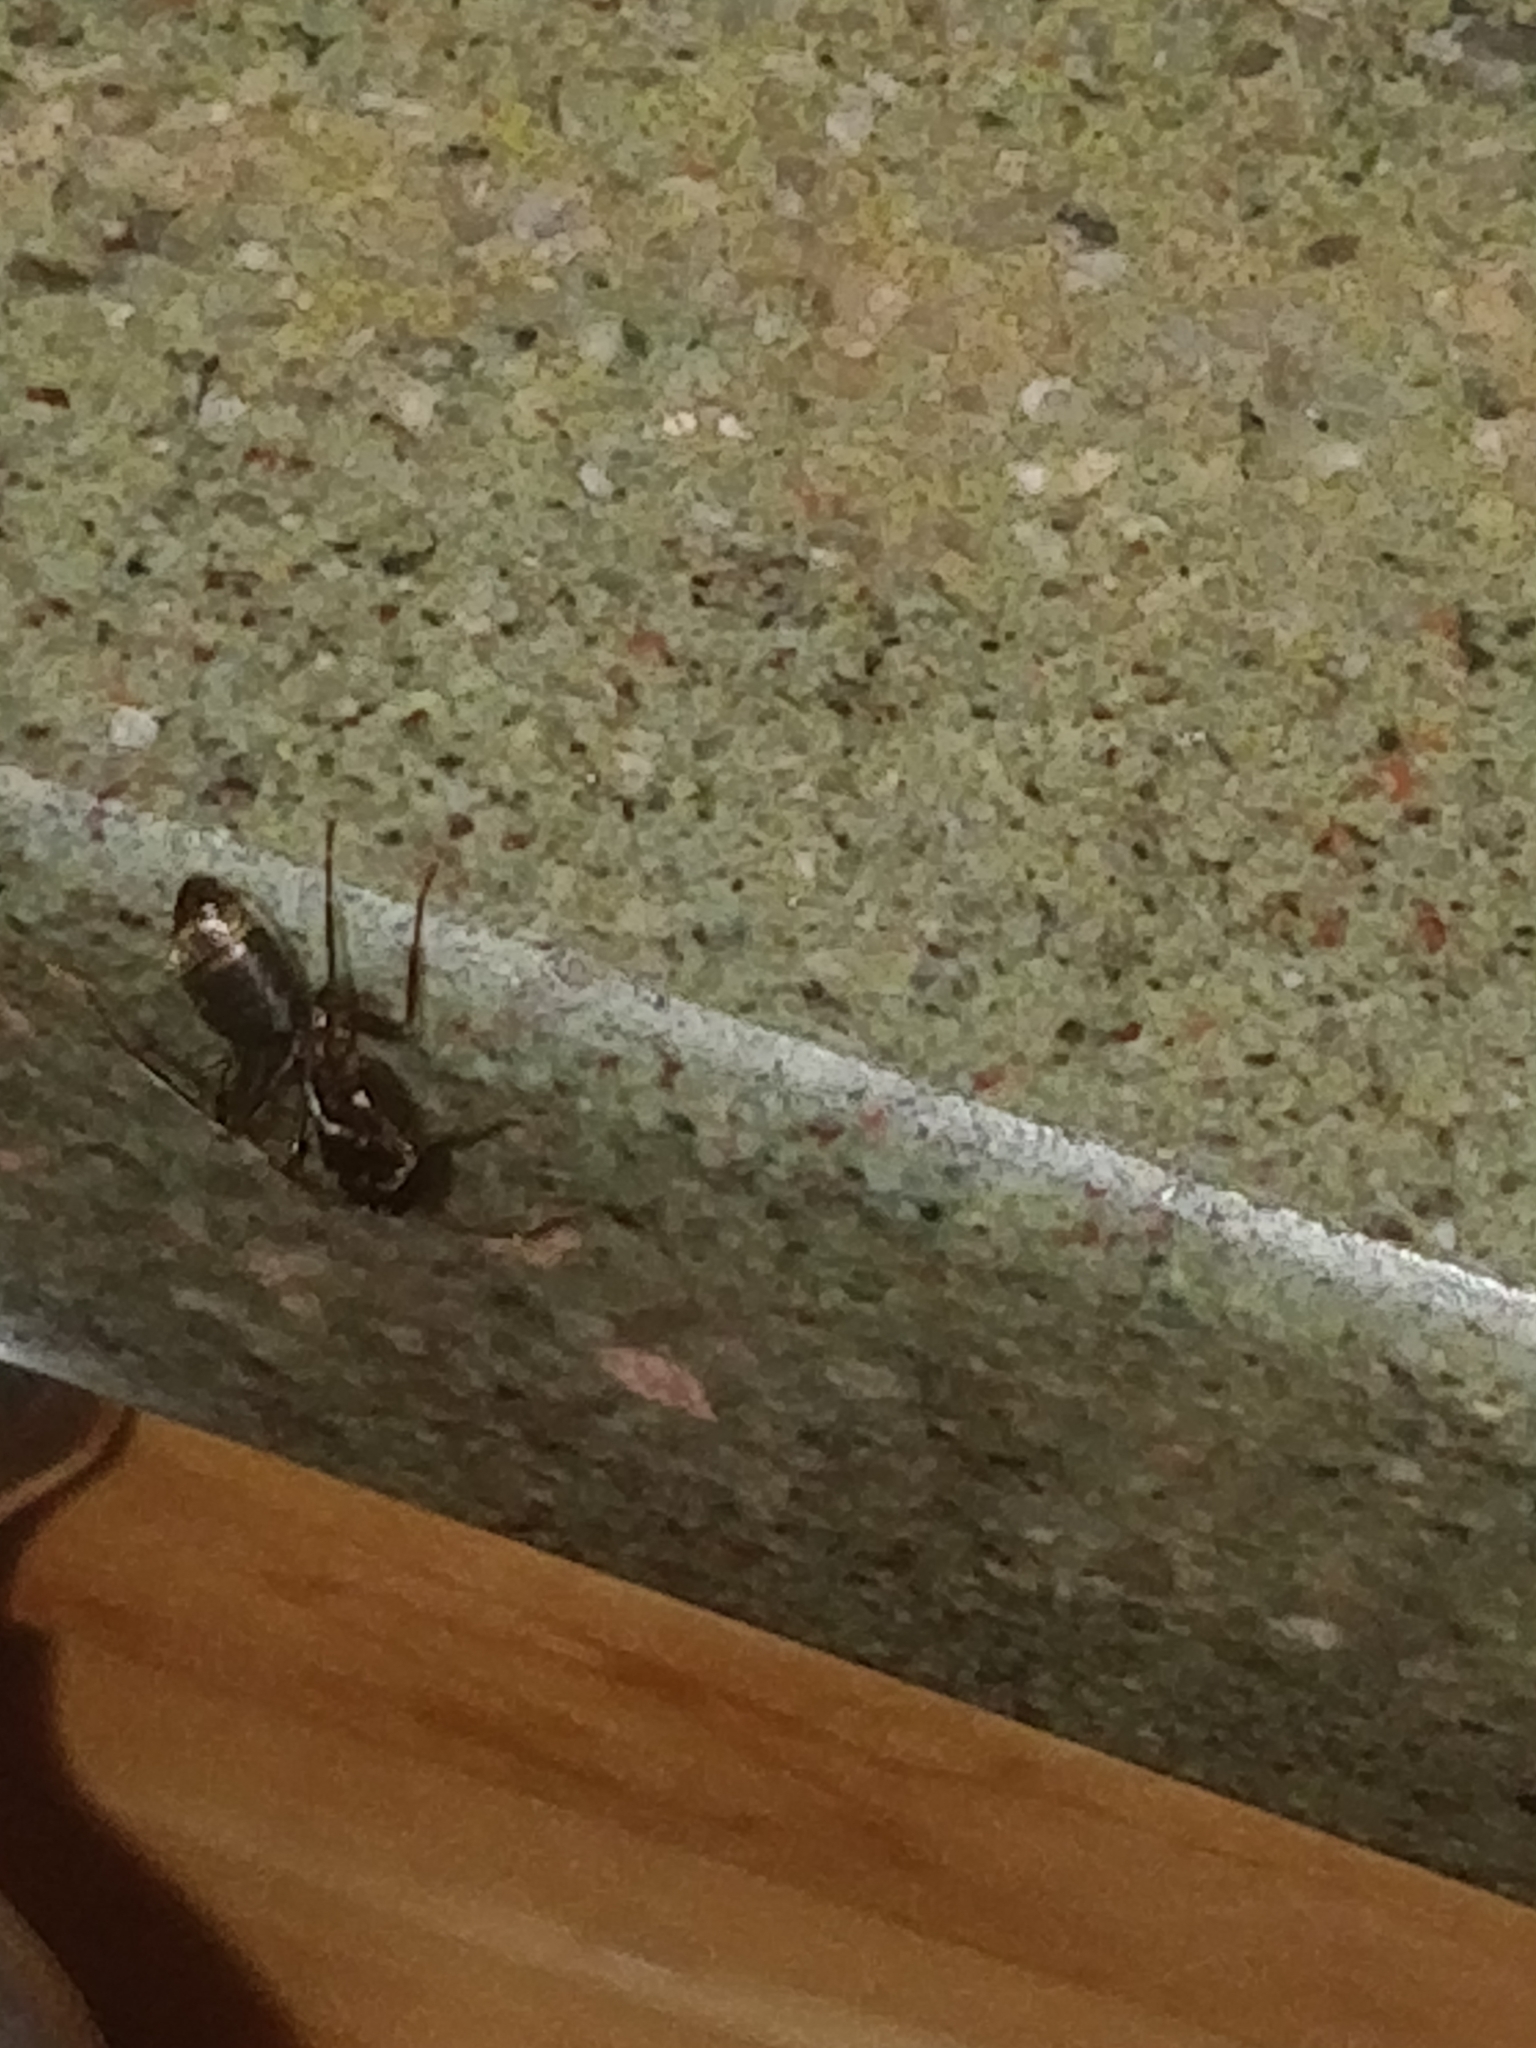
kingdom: Animalia
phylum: Arthropoda
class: Insecta
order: Hymenoptera
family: Formicidae
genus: Camponotus
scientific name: Camponotus pennsylvanicus
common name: Black carpenter ant
